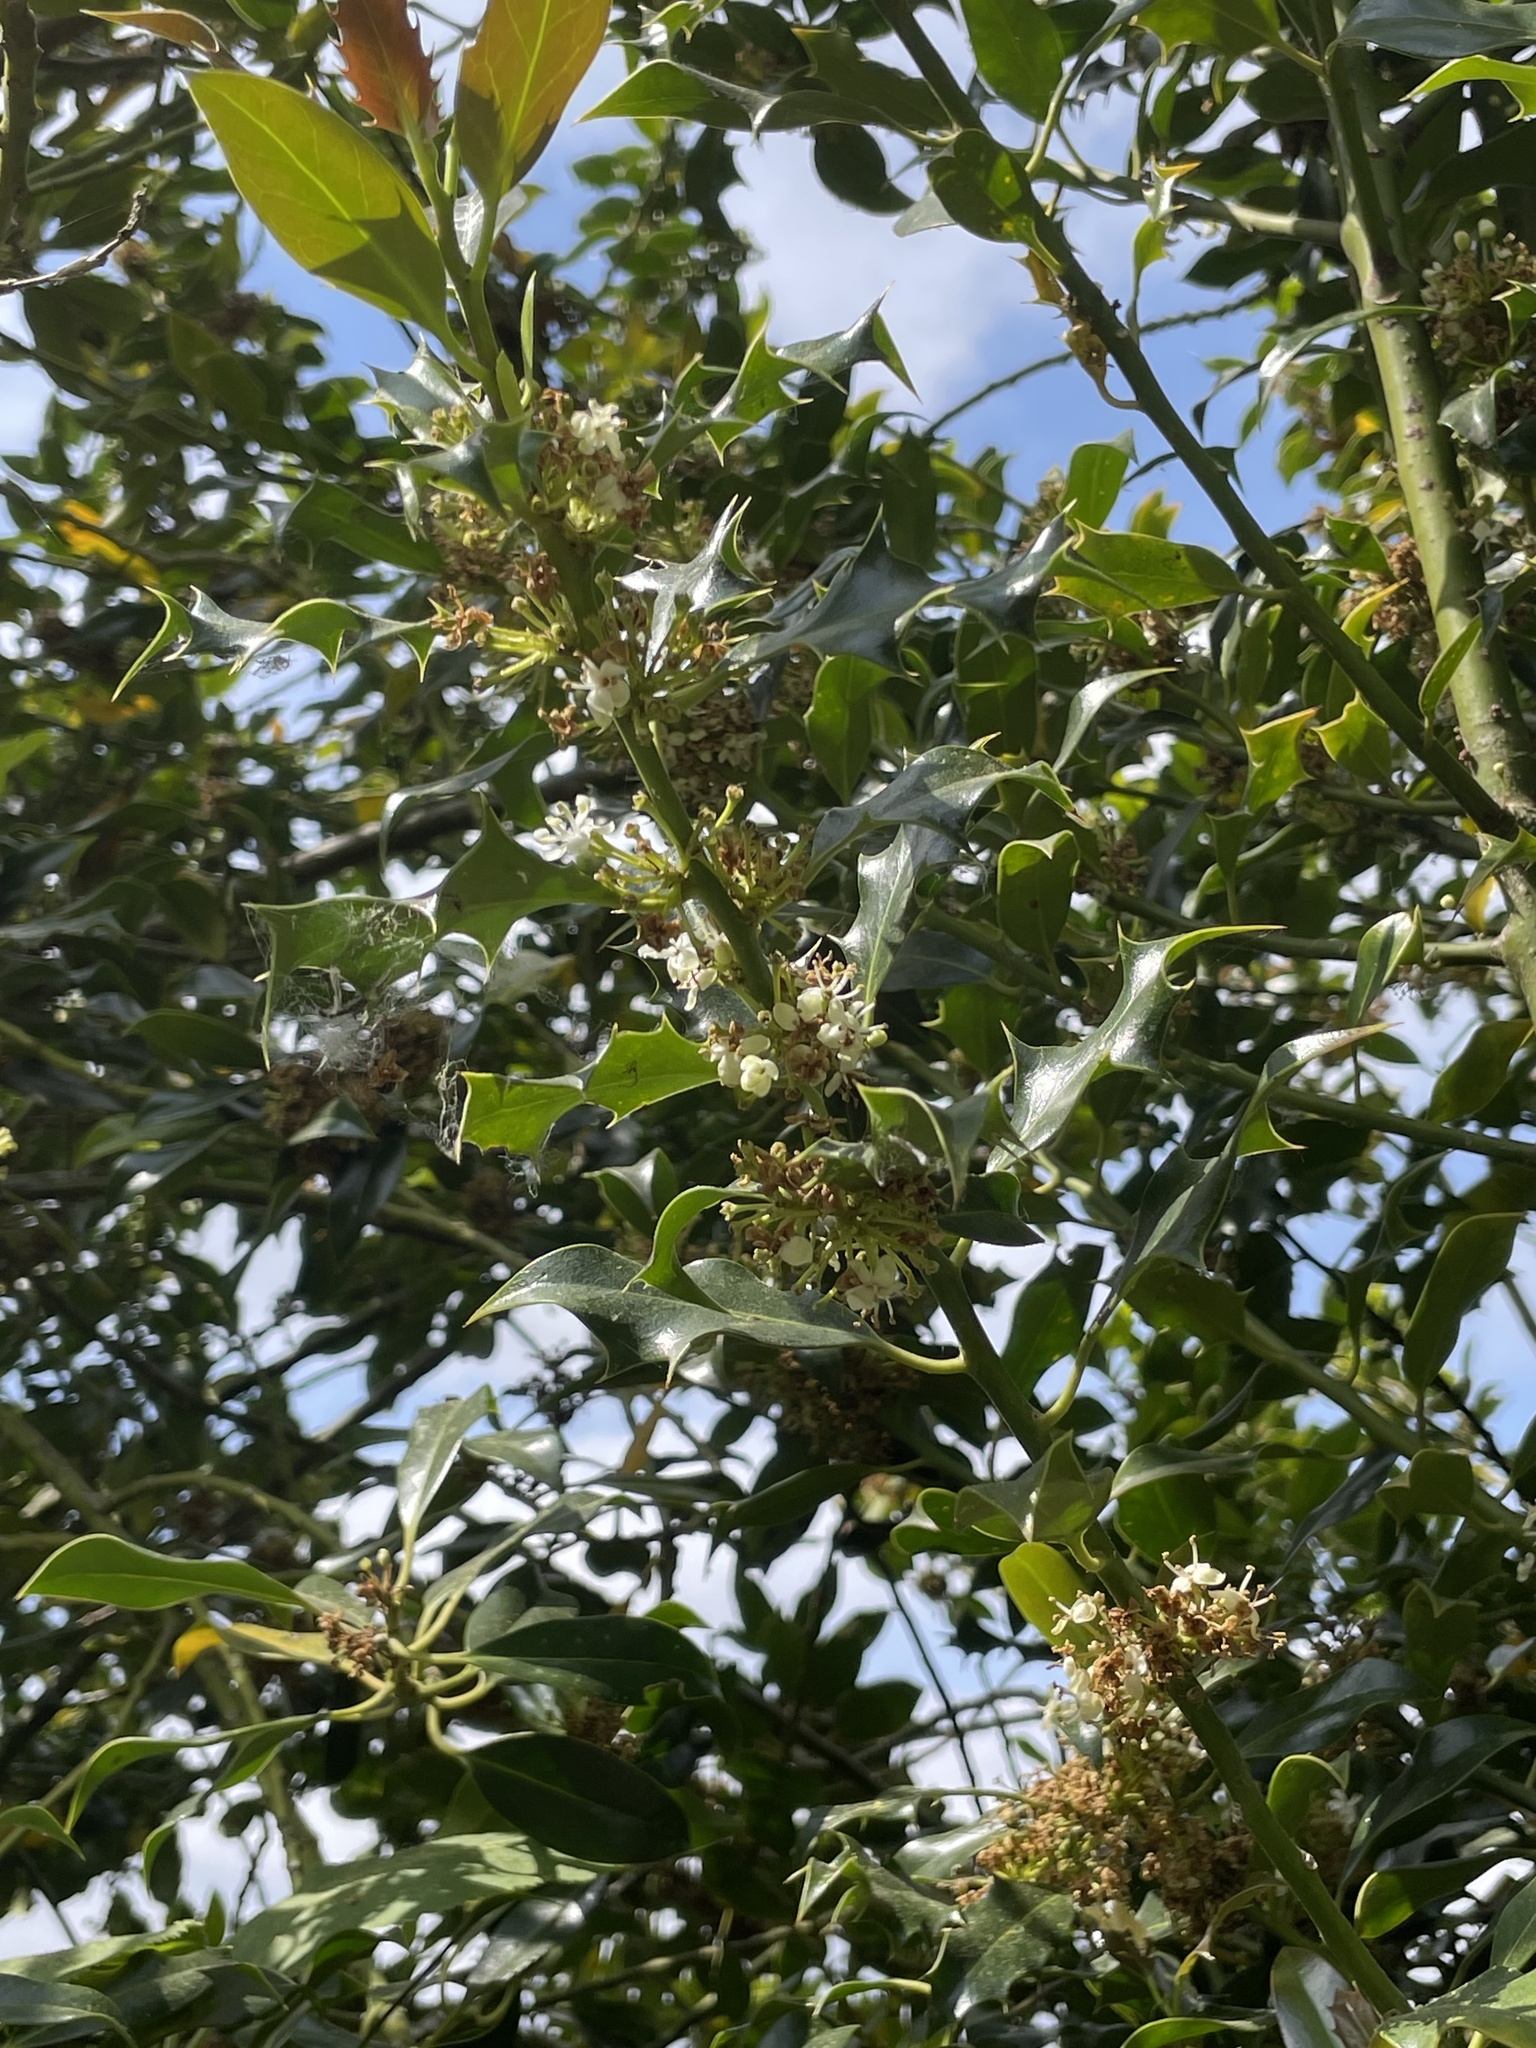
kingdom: Plantae
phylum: Tracheophyta
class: Magnoliopsida
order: Aquifoliales
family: Aquifoliaceae
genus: Ilex
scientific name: Ilex aquifolium
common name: English holly
